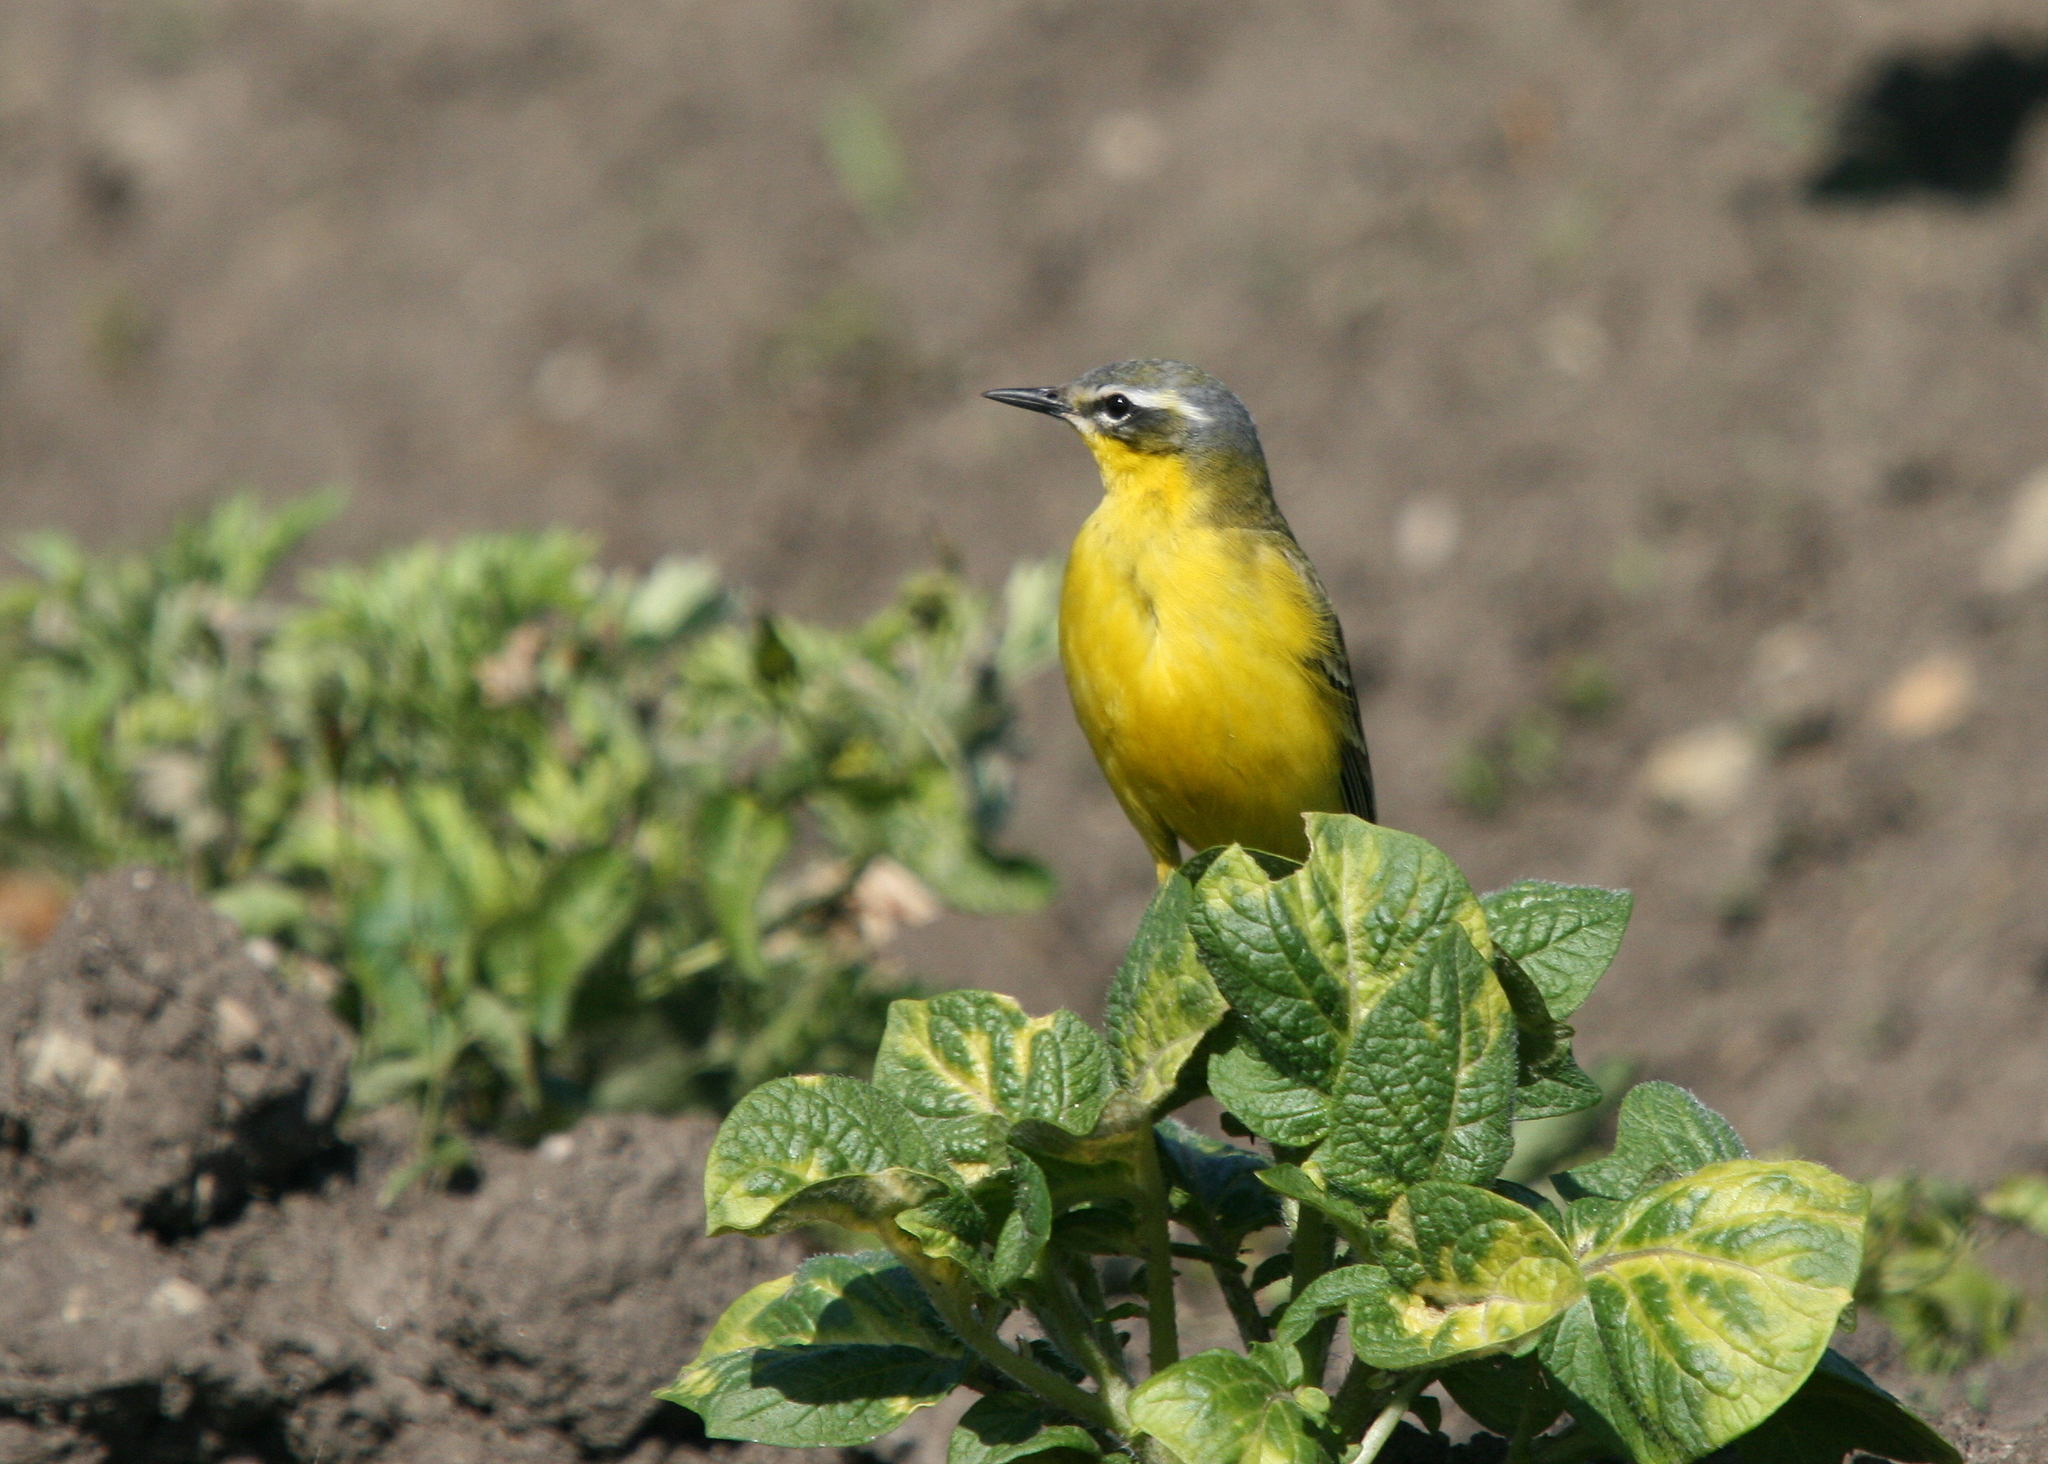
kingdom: Animalia
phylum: Chordata
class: Aves
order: Passeriformes
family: Motacillidae
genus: Motacilla
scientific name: Motacilla flava
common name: Western yellow wagtail
